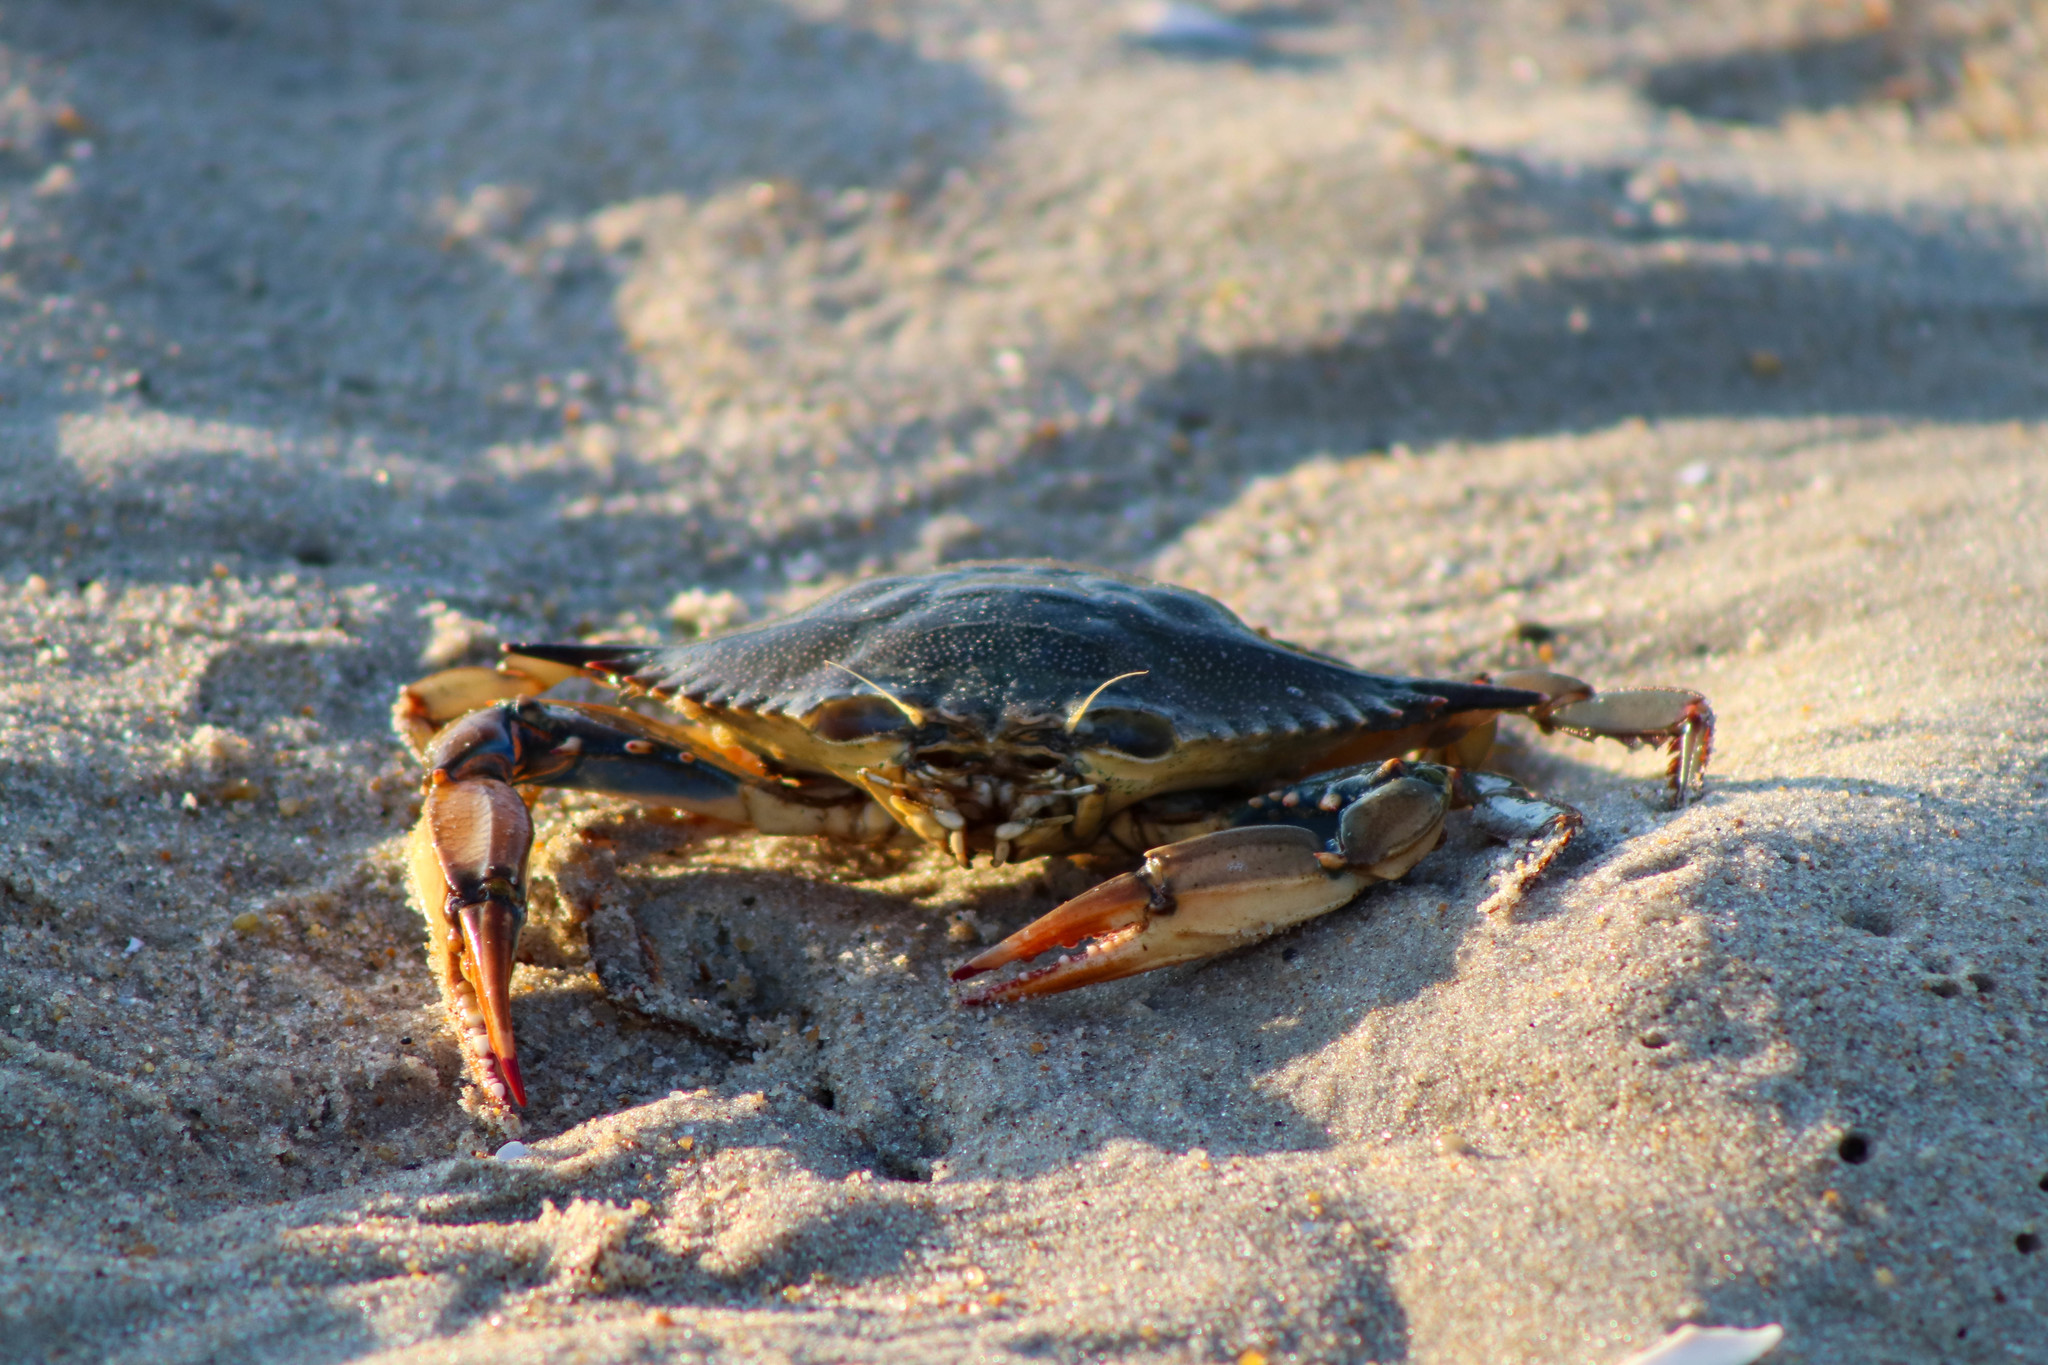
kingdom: Animalia
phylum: Arthropoda
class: Malacostraca
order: Decapoda
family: Portunidae
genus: Callinectes
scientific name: Callinectes sapidus
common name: Blue crab
